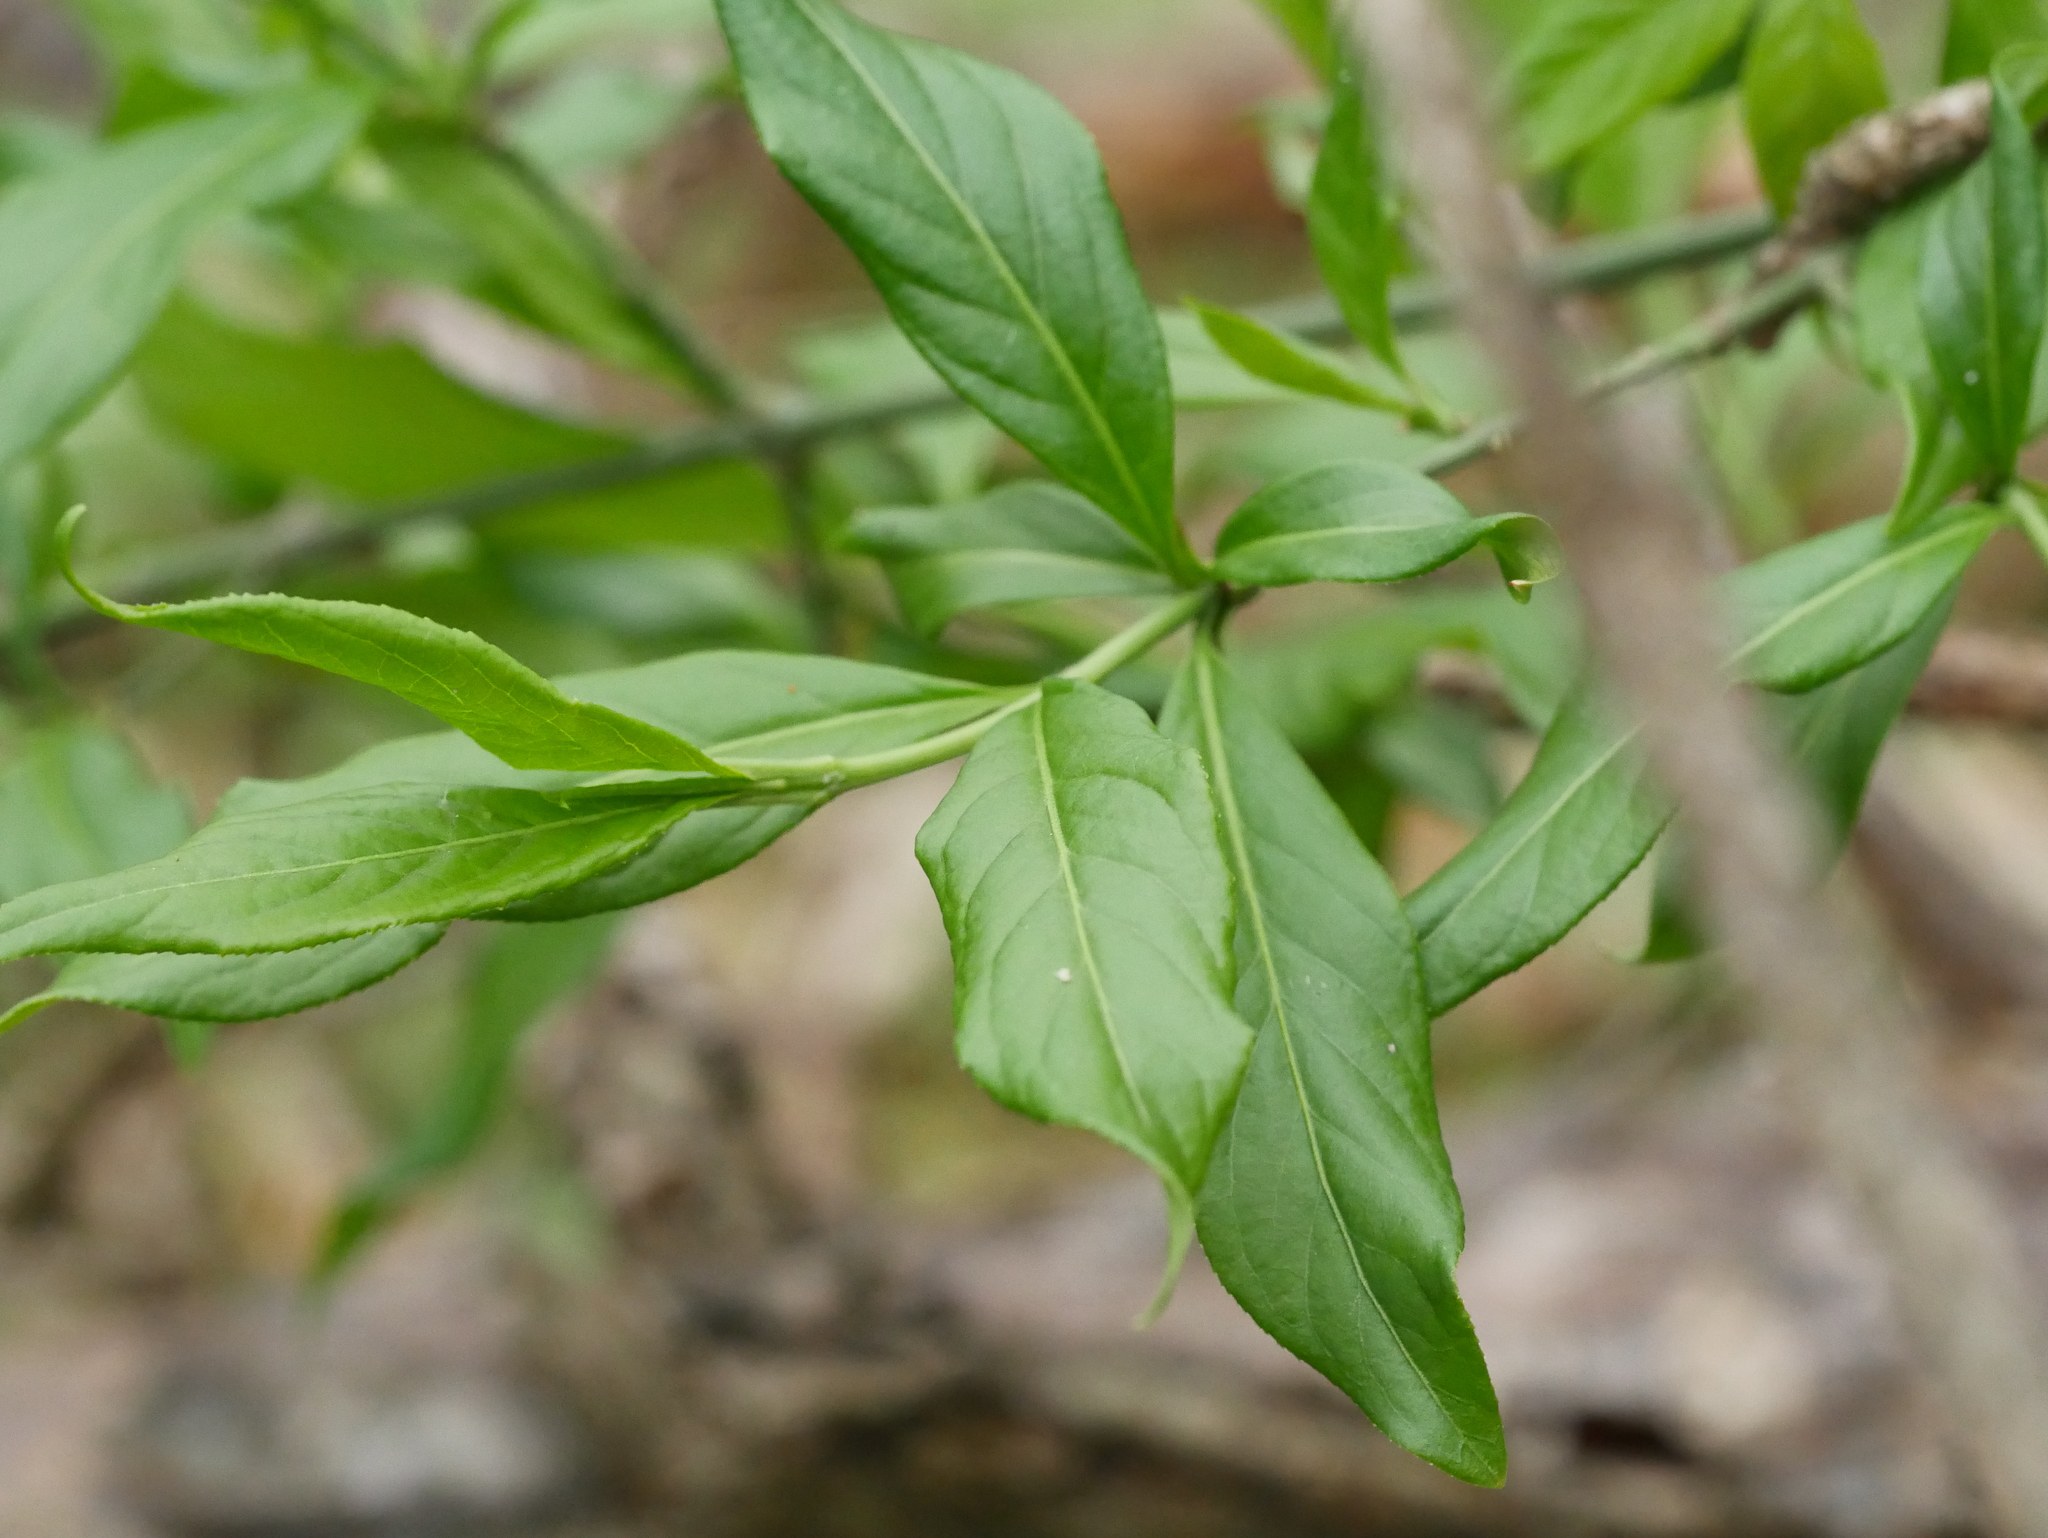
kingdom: Plantae
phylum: Tracheophyta
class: Magnoliopsida
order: Celastrales
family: Celastraceae
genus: Euonymus
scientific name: Euonymus europaeus
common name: Spindle
